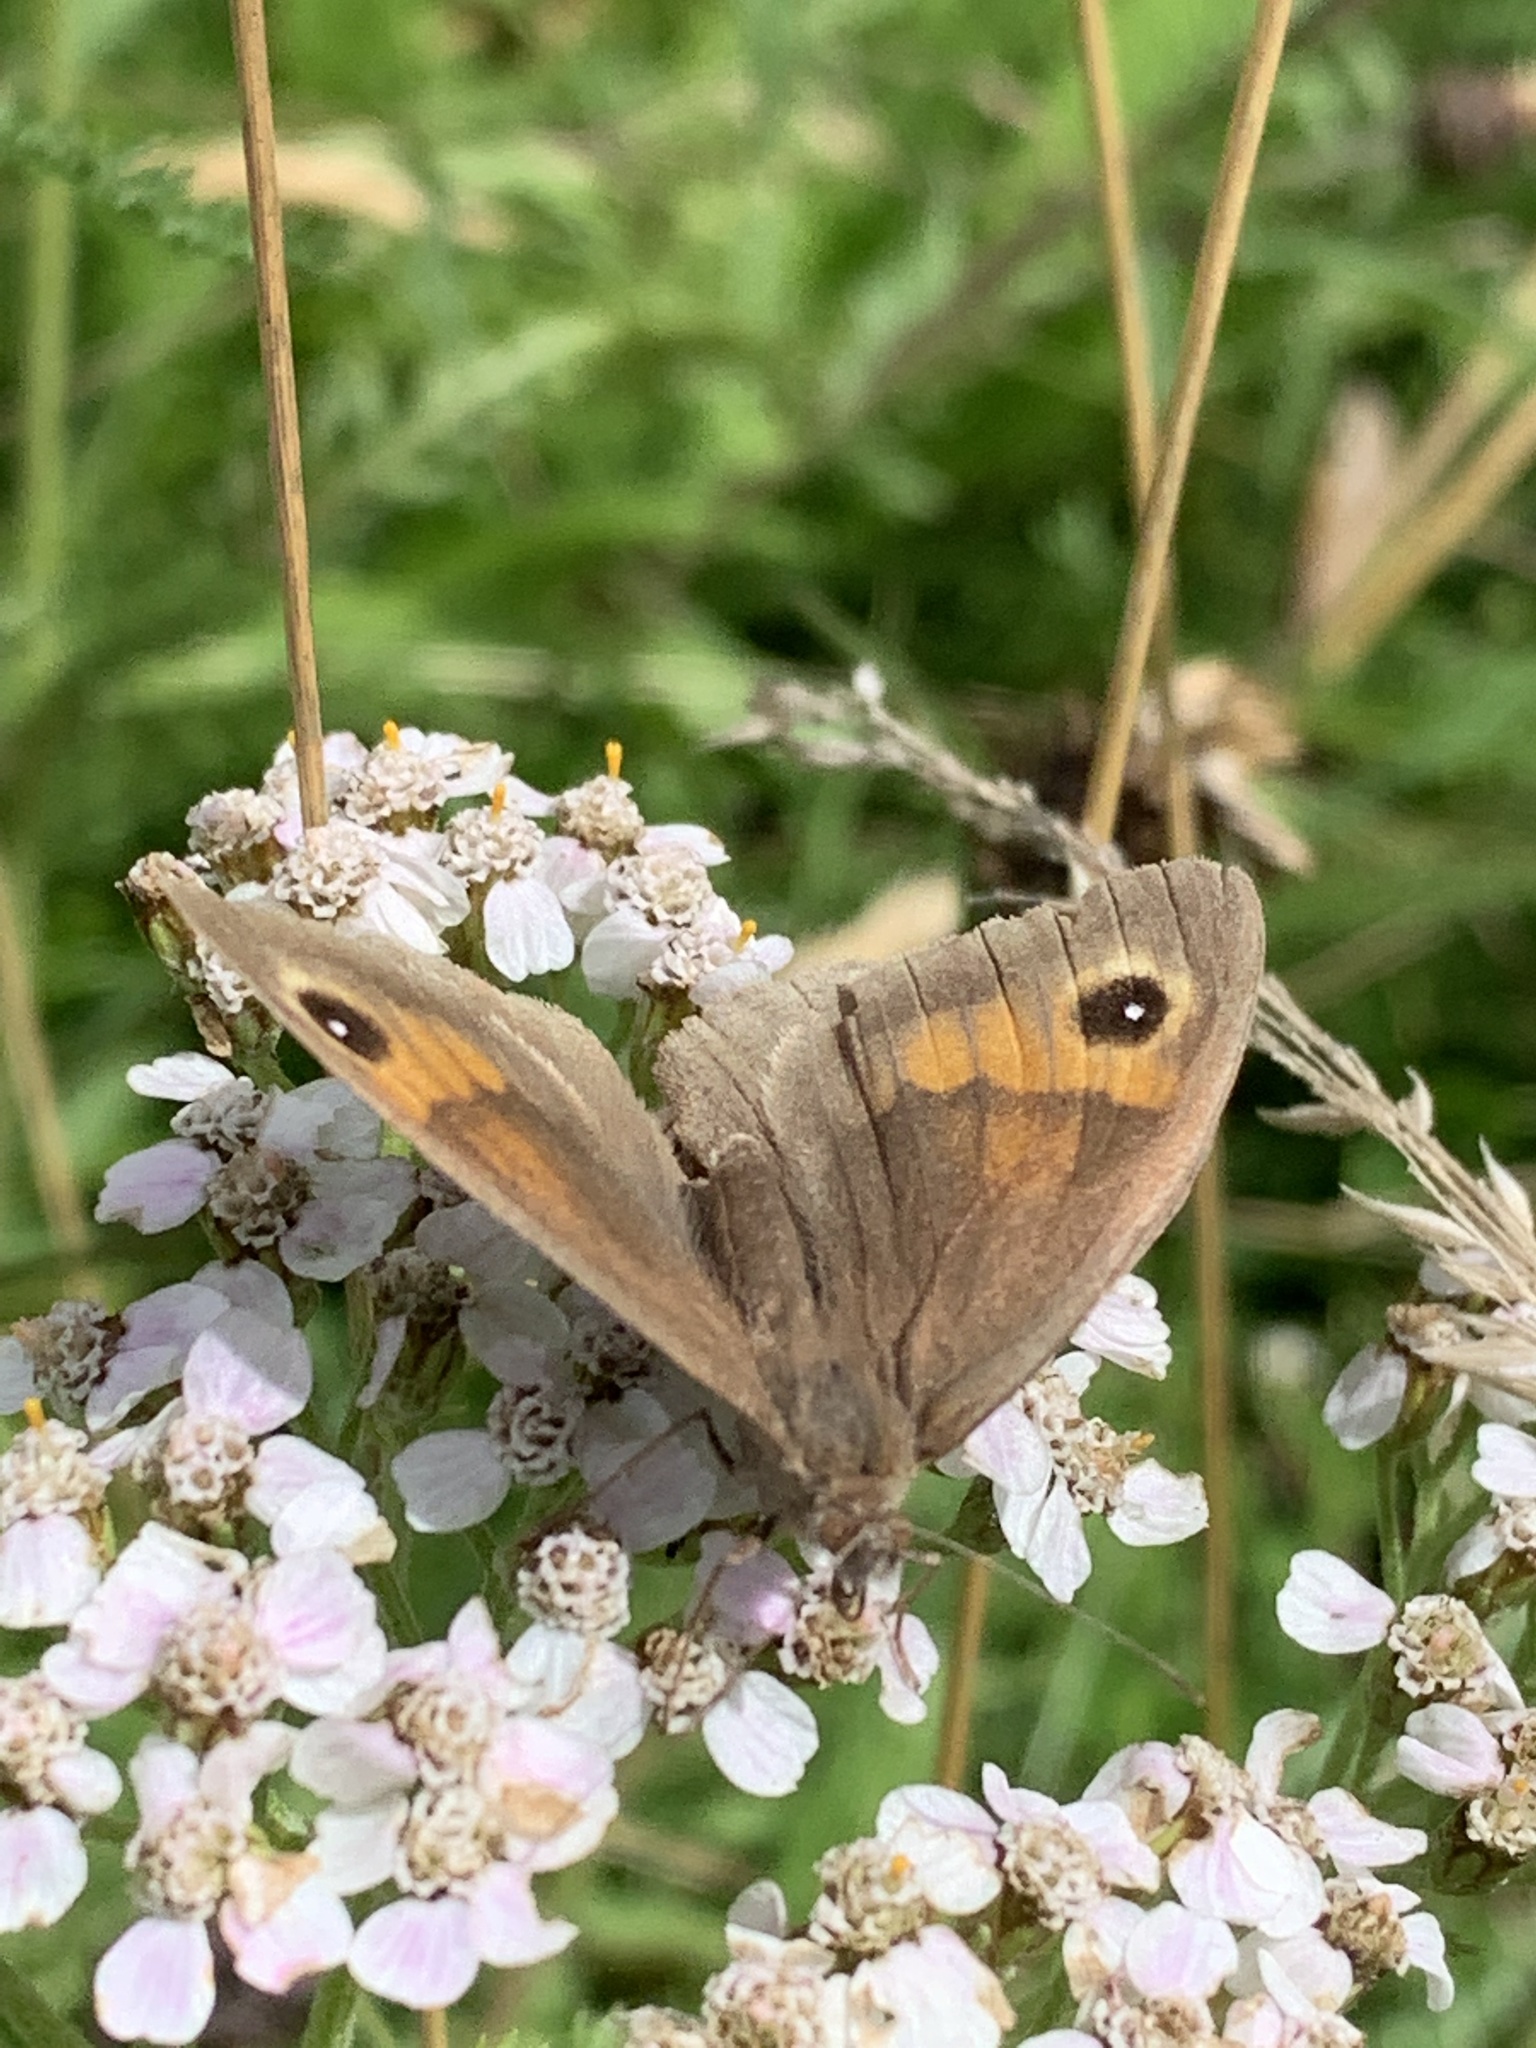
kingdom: Animalia
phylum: Arthropoda
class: Insecta
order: Lepidoptera
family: Nymphalidae
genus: Maniola
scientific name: Maniola jurtina
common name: Meadow brown
